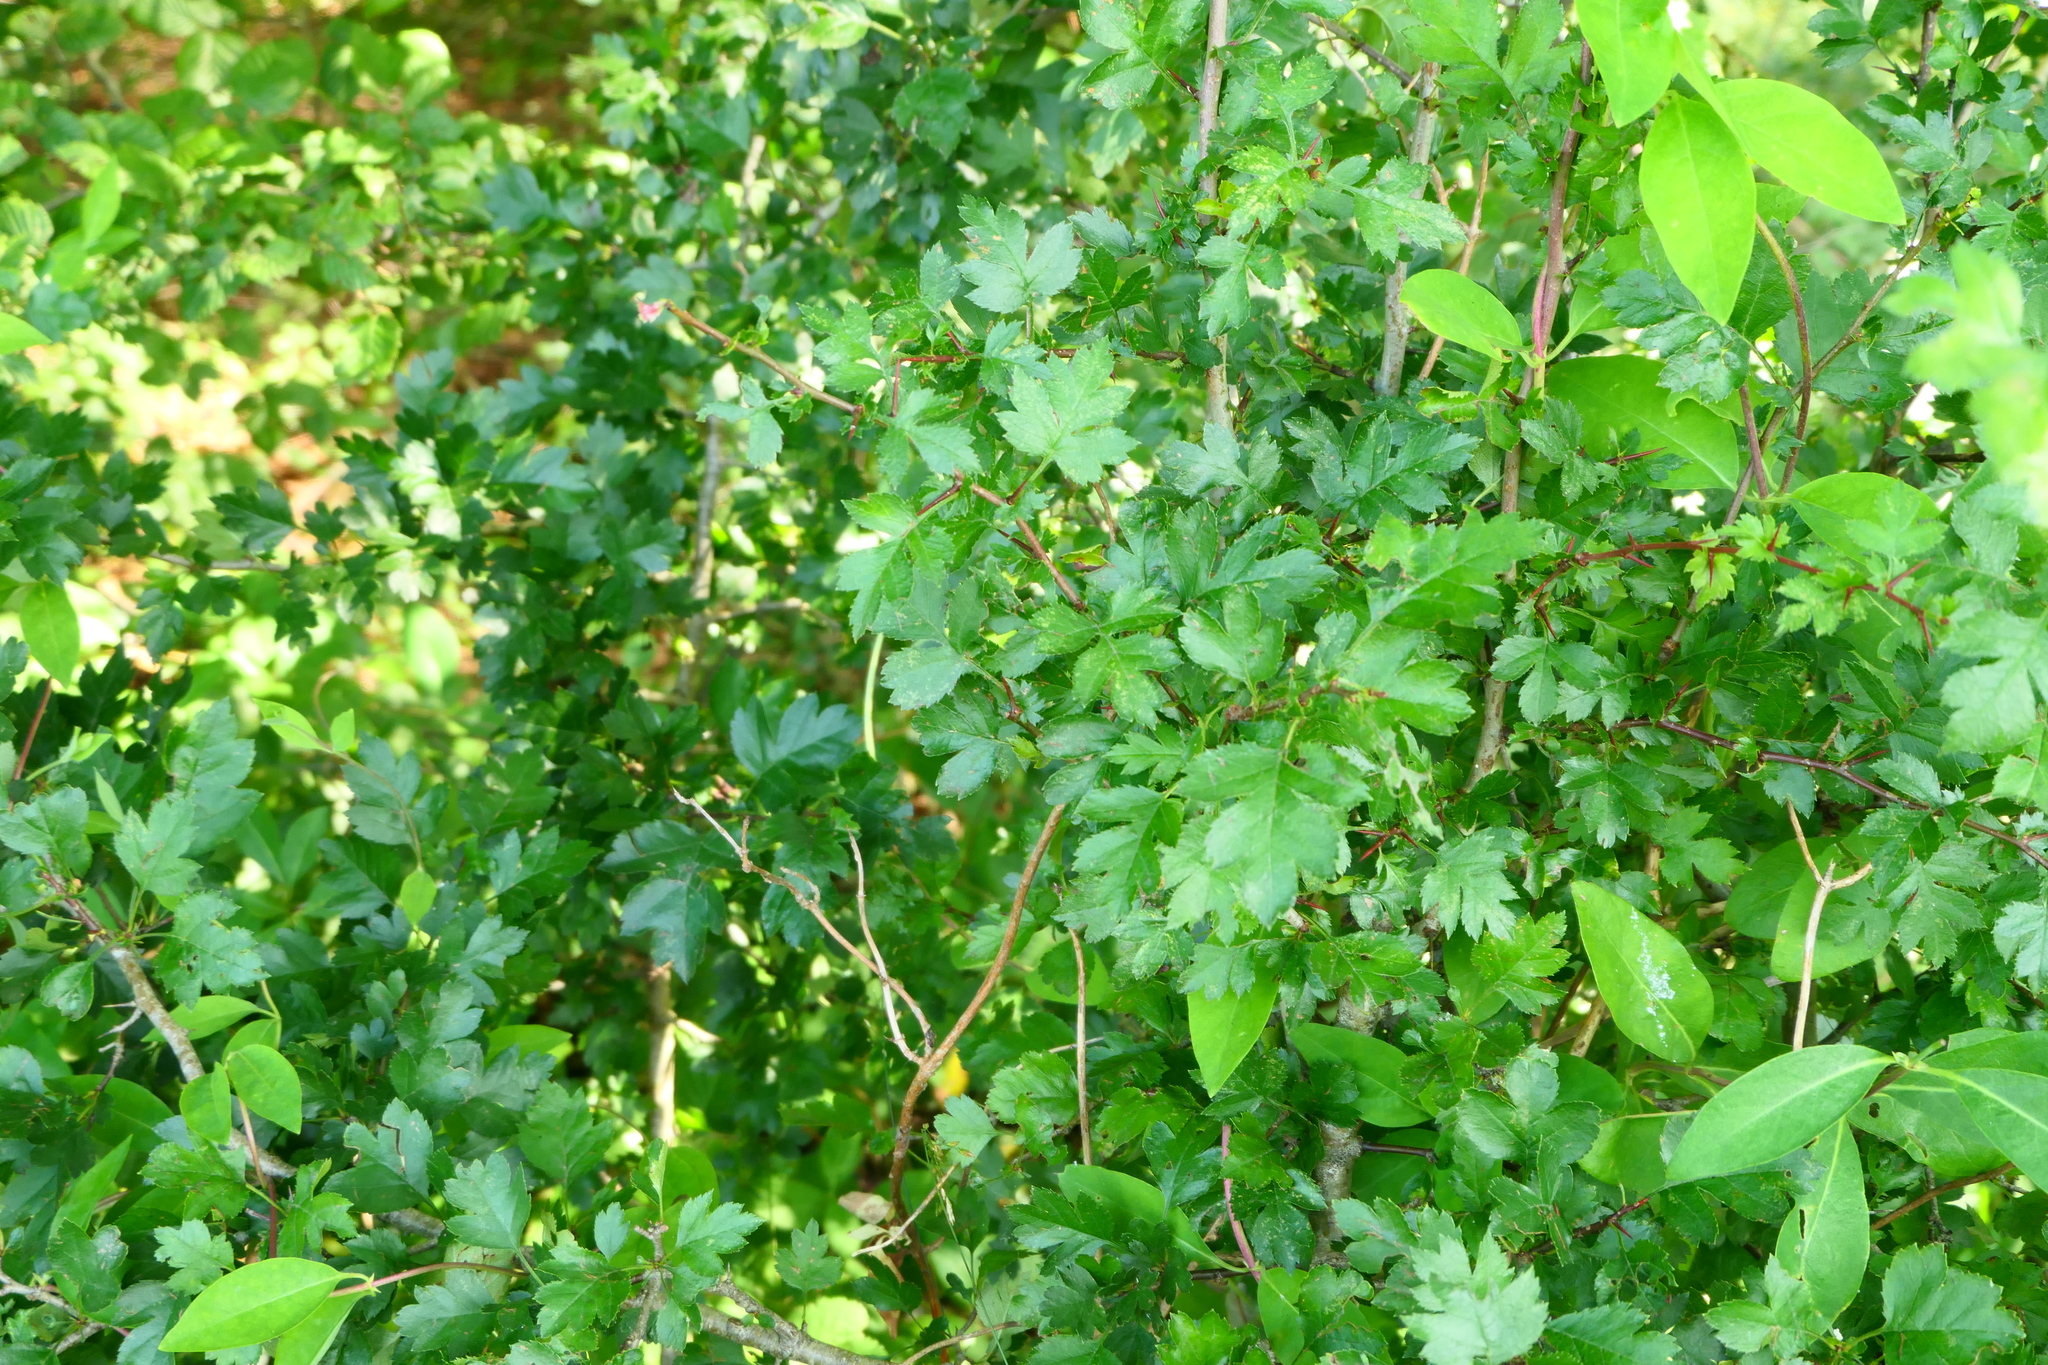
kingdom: Plantae
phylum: Tracheophyta
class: Magnoliopsida
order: Rosales
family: Rosaceae
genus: Crataegus
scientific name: Crataegus monogyna
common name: Hawthorn
